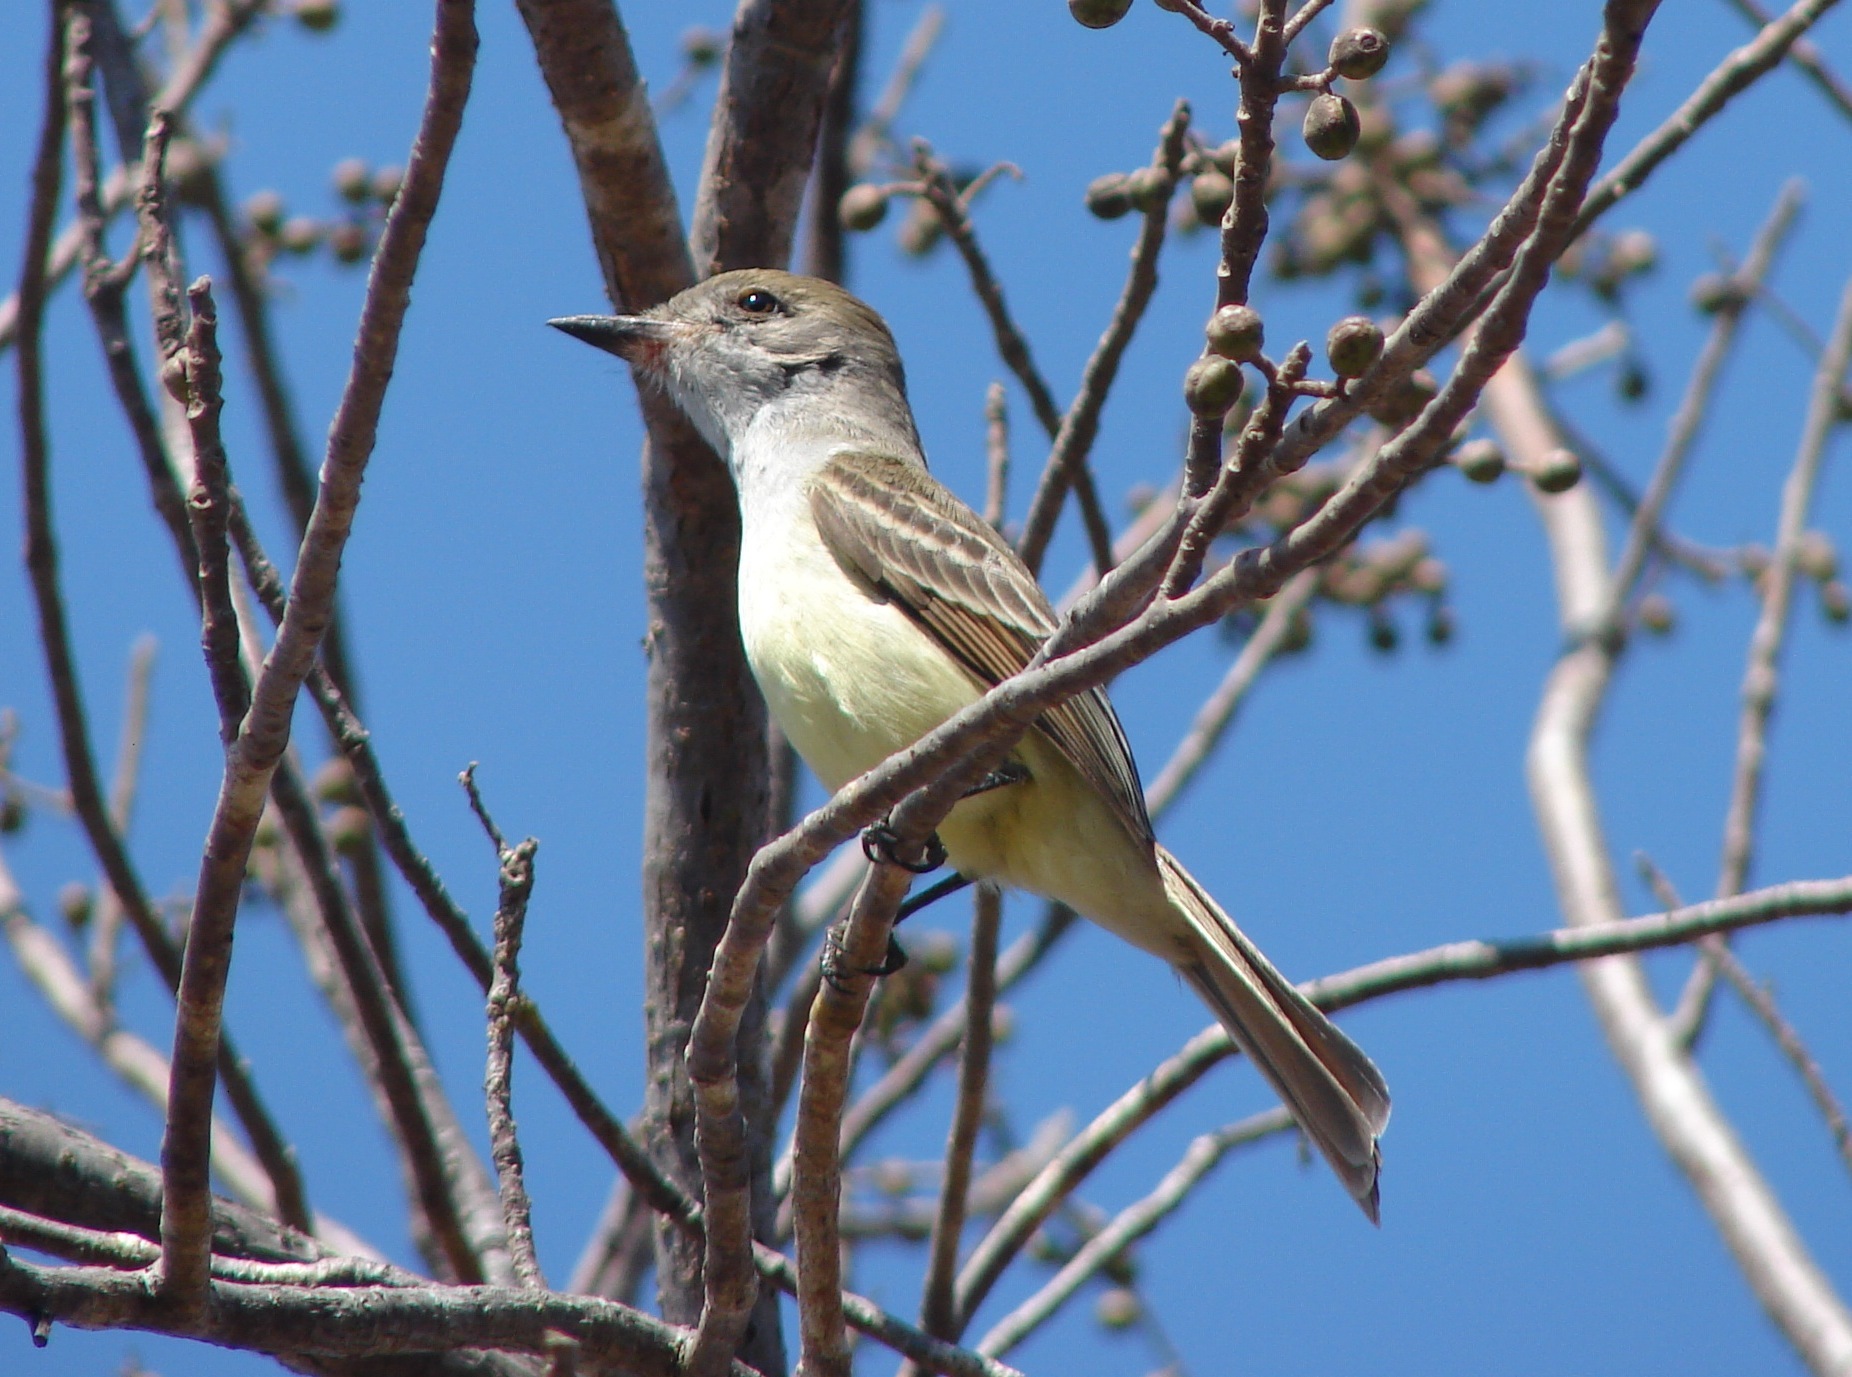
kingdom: Animalia
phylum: Chordata
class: Aves
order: Passeriformes
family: Tyrannidae
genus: Myiarchus
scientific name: Myiarchus cinerascens
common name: Ash-throated flycatcher
